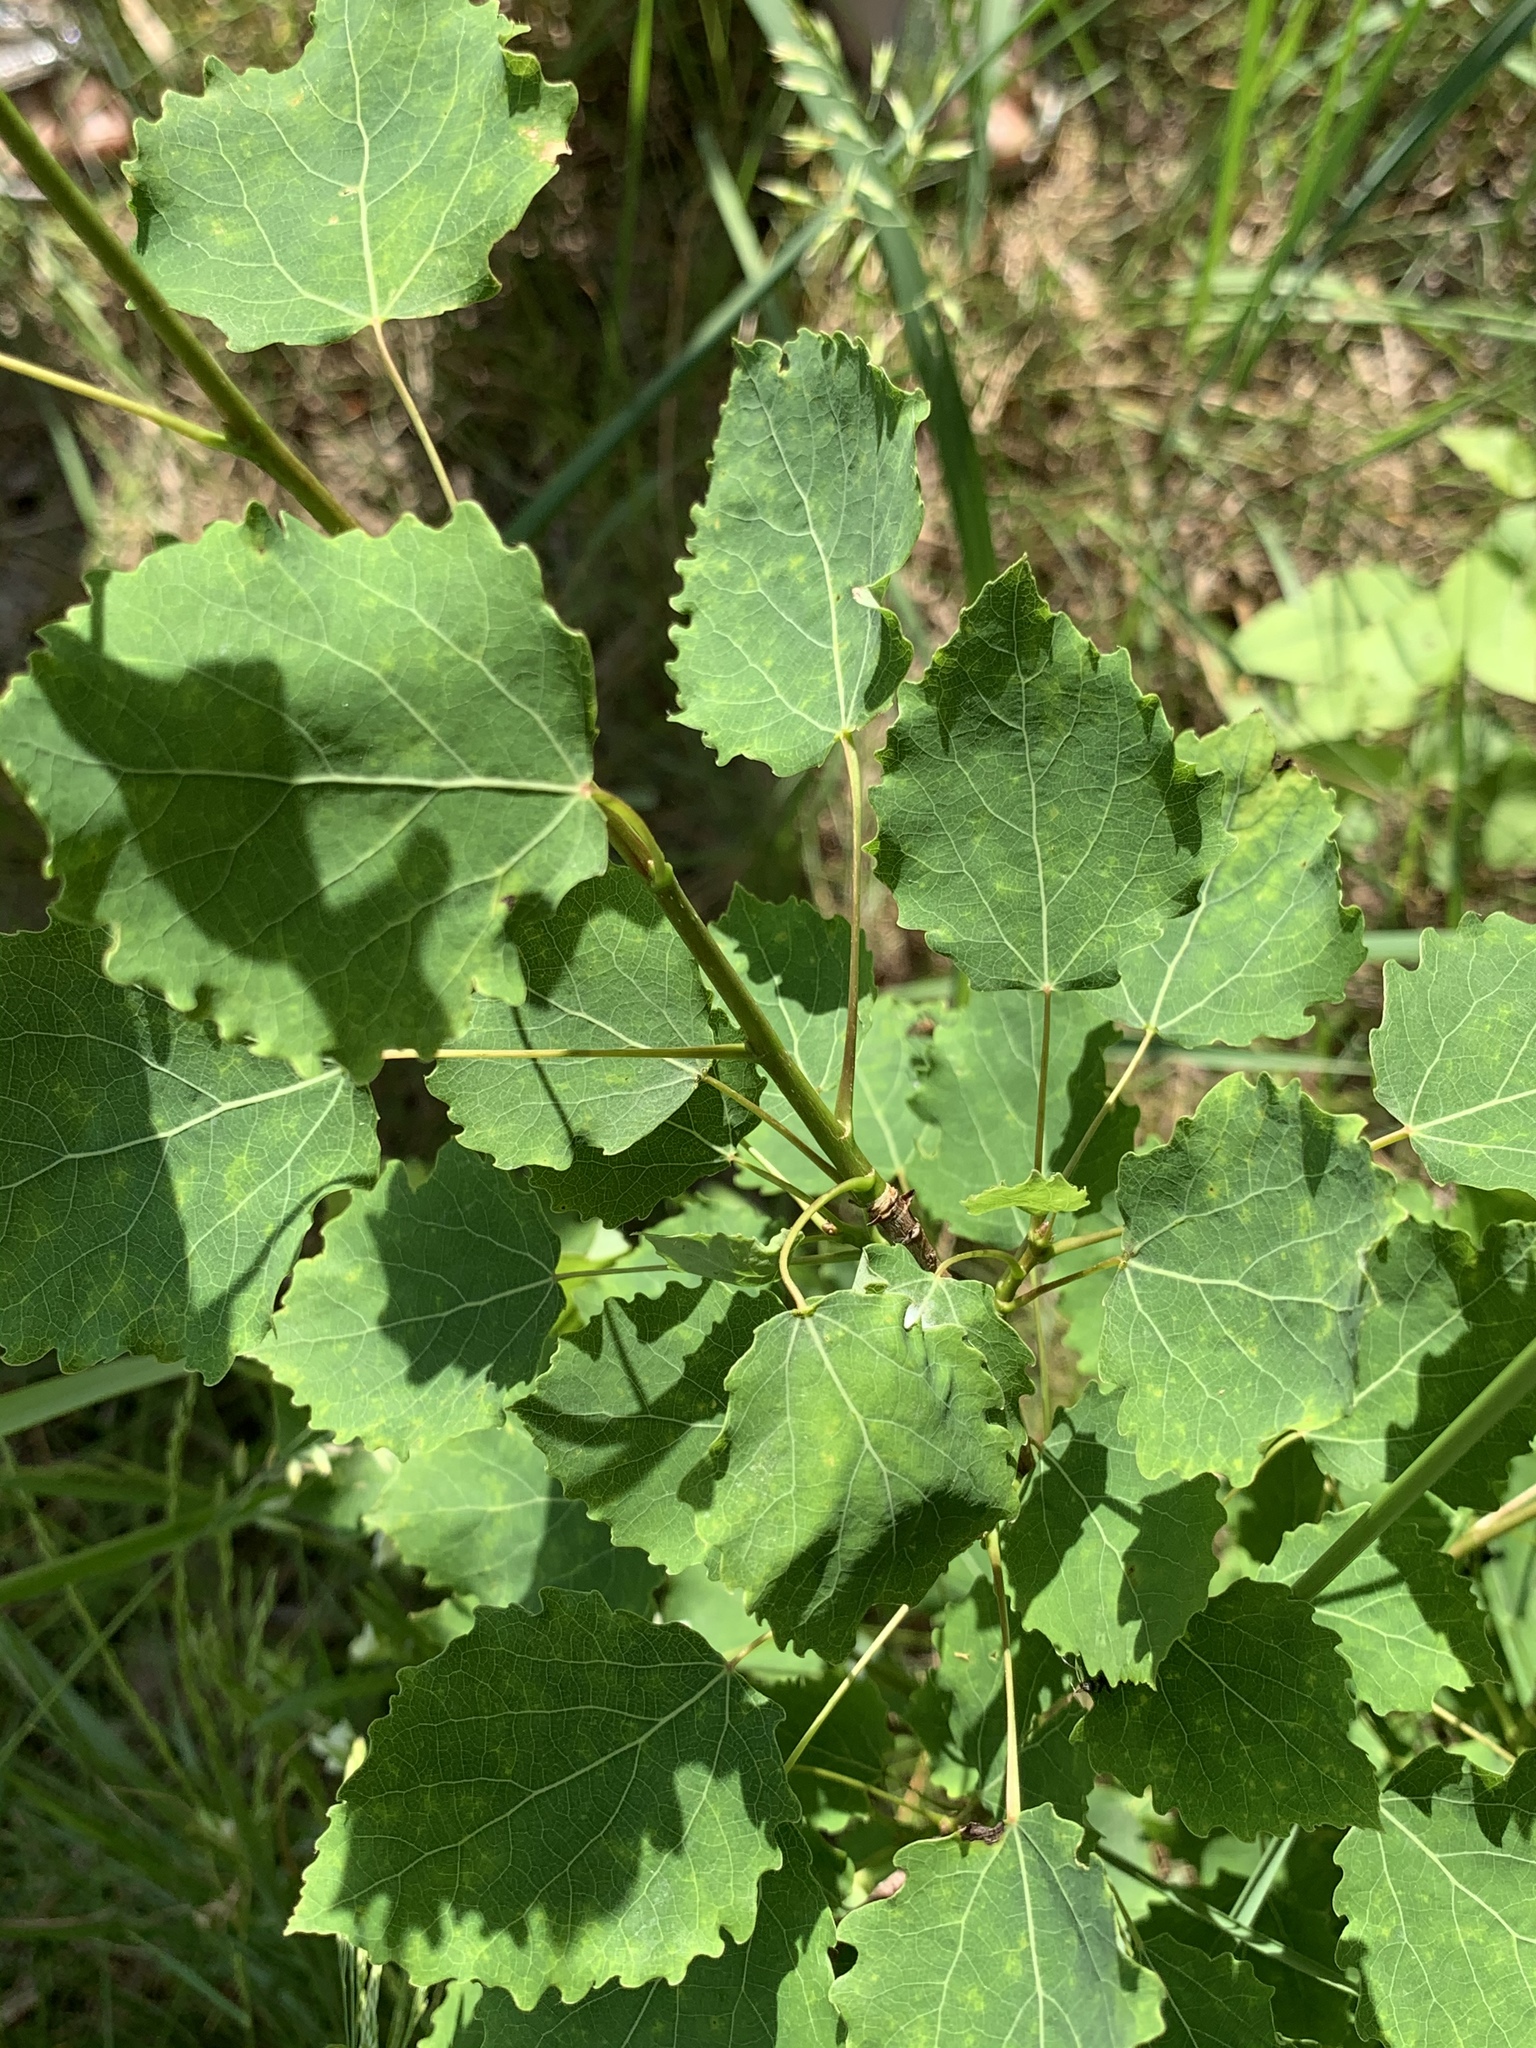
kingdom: Plantae
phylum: Tracheophyta
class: Magnoliopsida
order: Malpighiales
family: Salicaceae
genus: Populus
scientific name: Populus tremula
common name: European aspen
